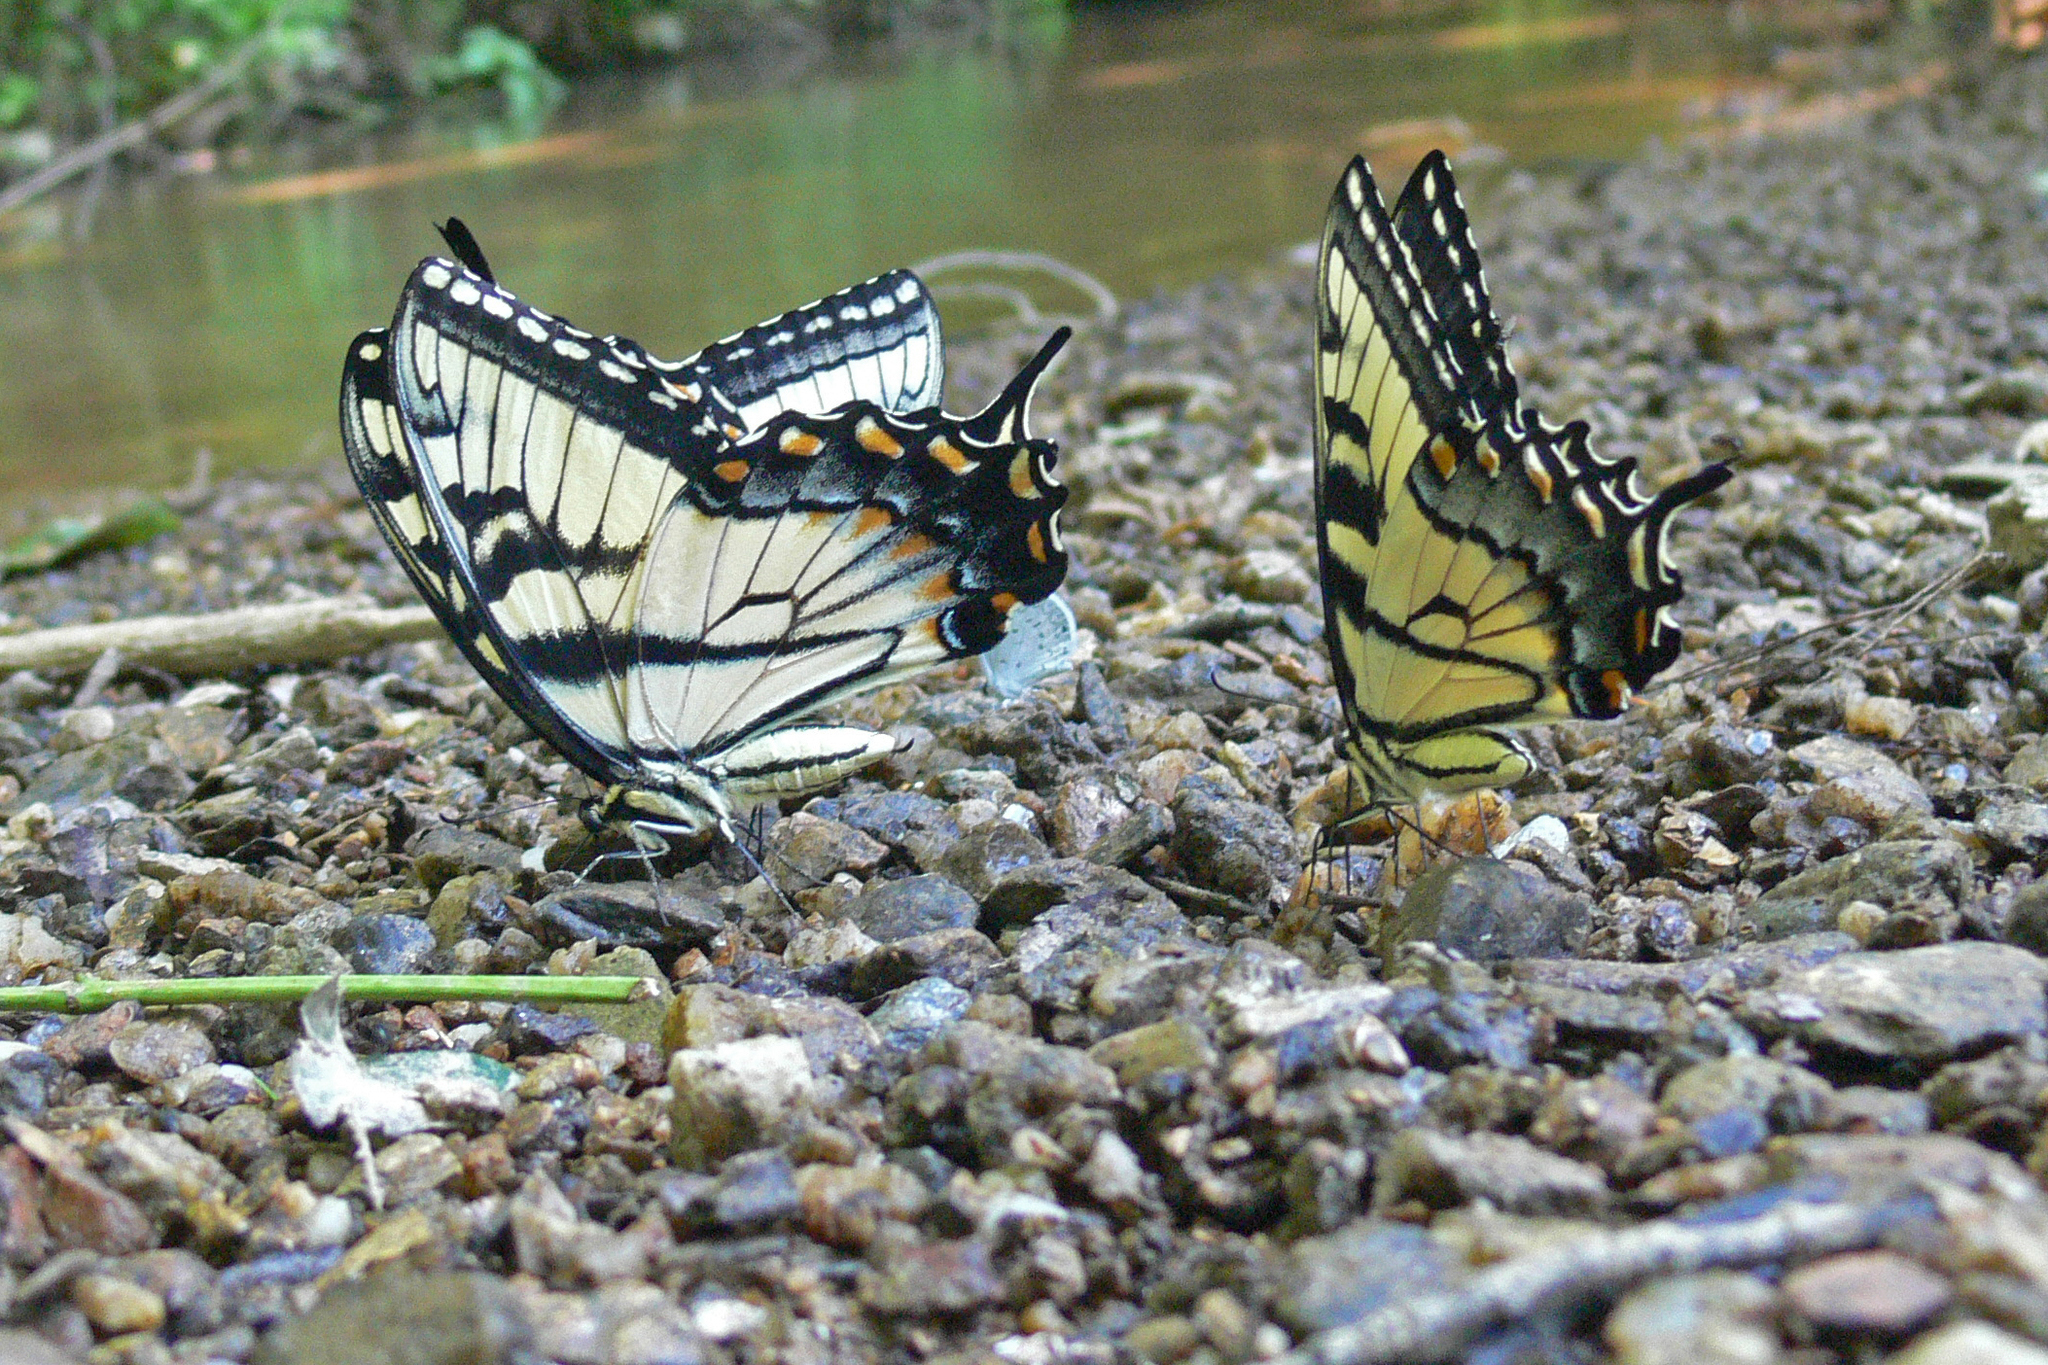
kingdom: Animalia
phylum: Arthropoda
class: Insecta
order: Lepidoptera
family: Papilionidae
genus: Papilio
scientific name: Papilio glaucus
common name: Tiger swallowtail
